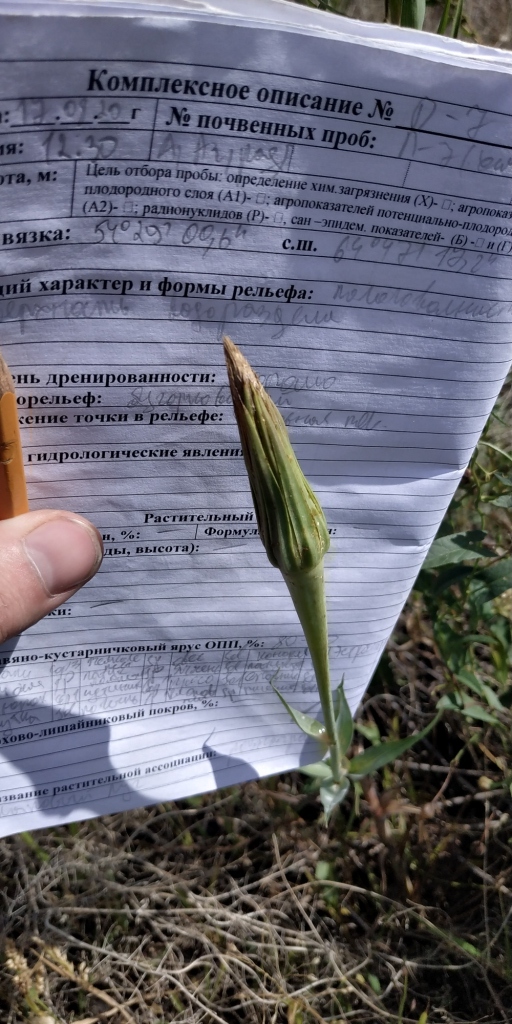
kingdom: Plantae
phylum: Tracheophyta
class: Magnoliopsida
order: Asterales
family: Asteraceae
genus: Tragopogon
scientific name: Tragopogon dubius
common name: Yellow salsify
